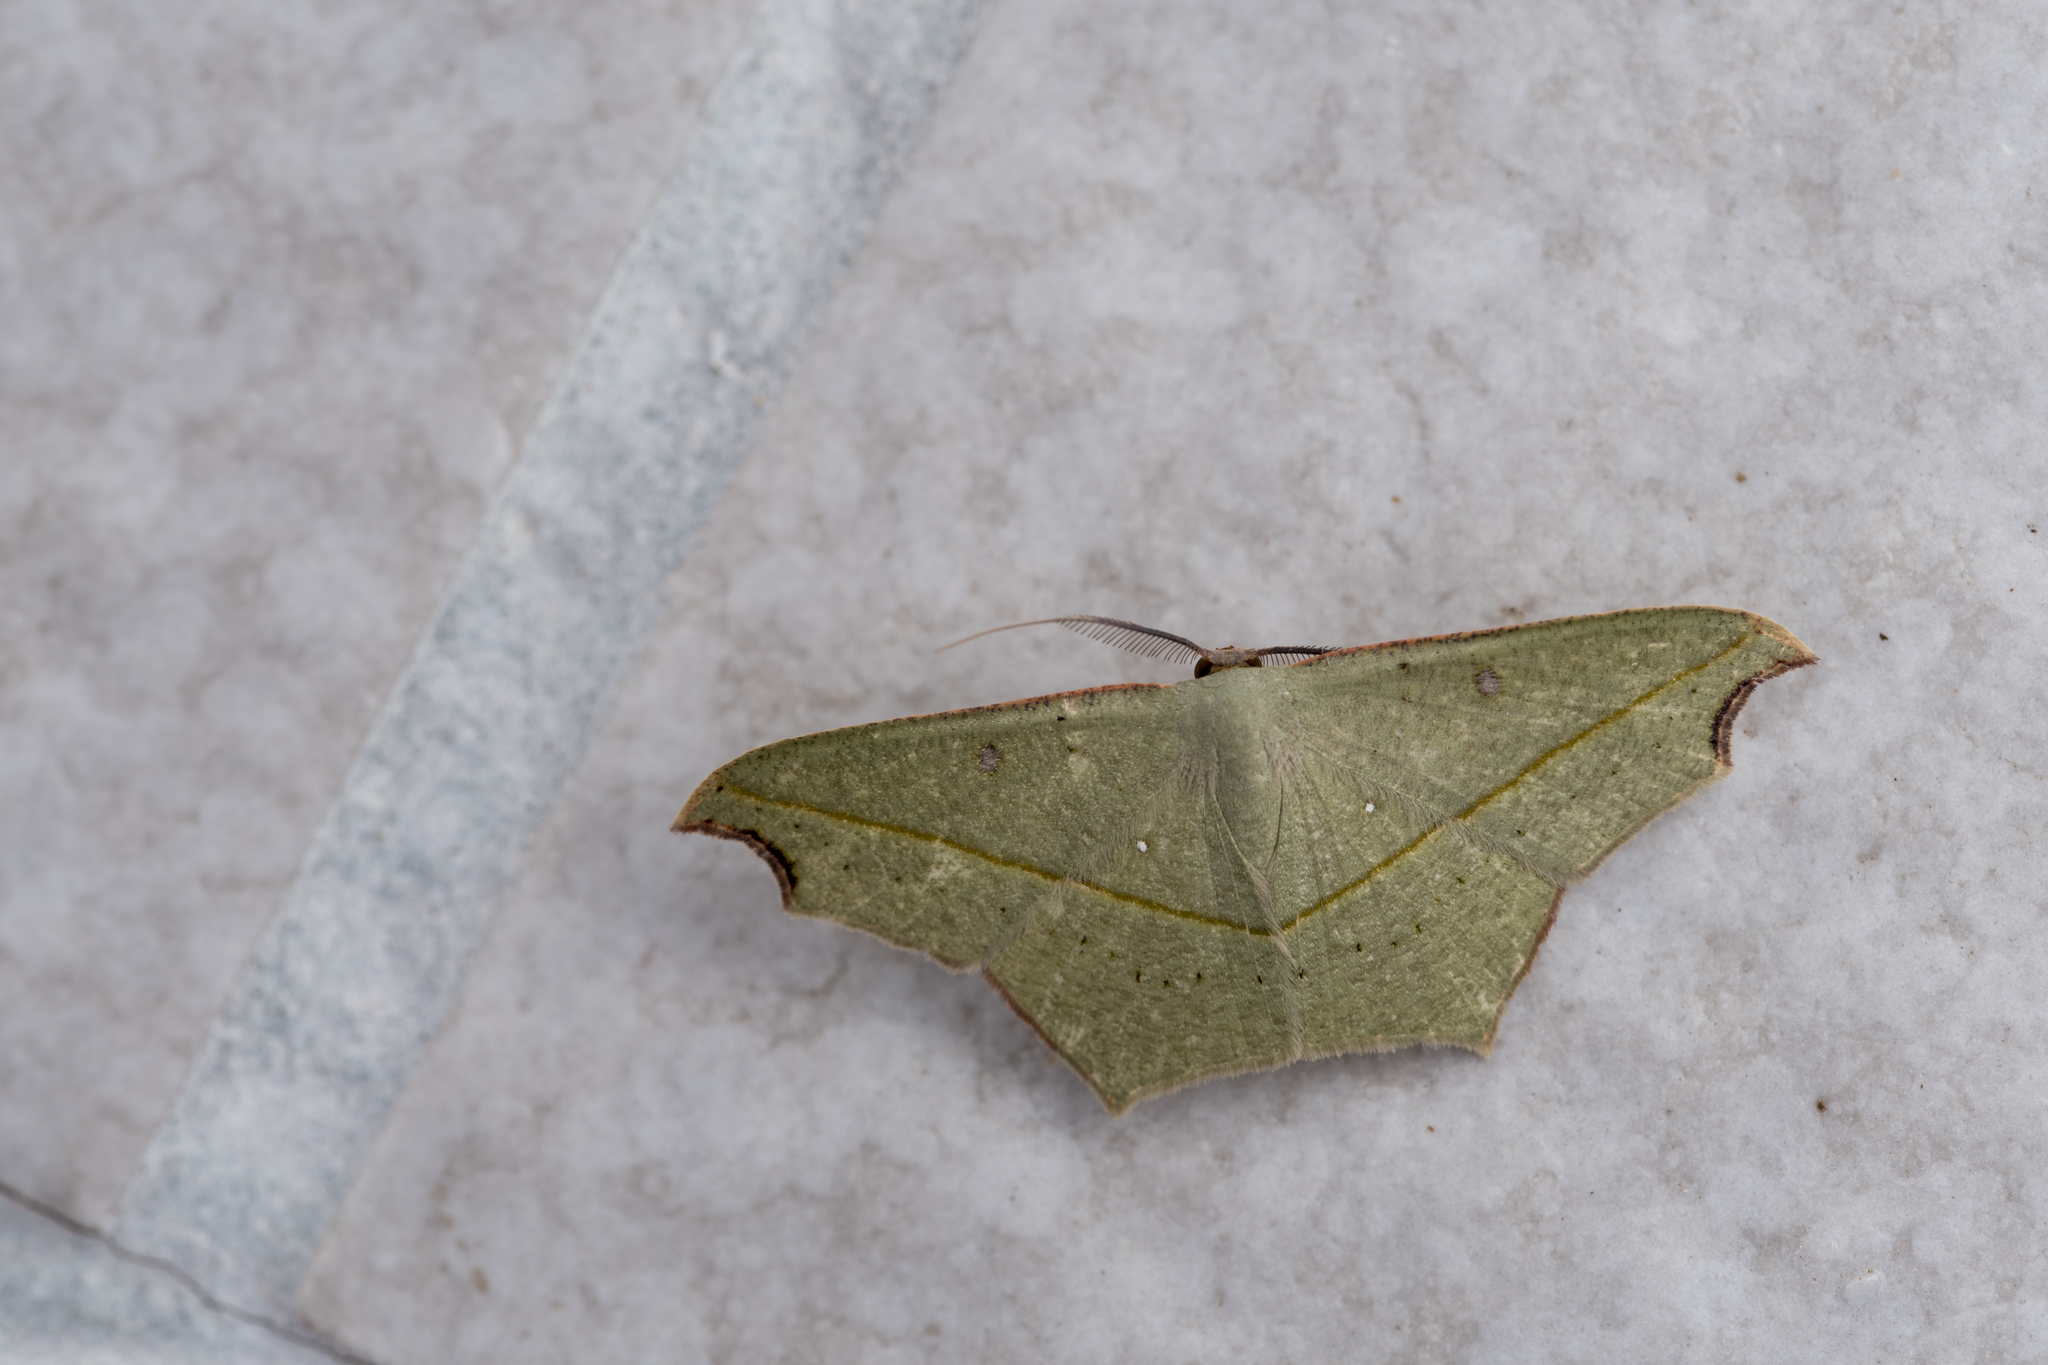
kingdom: Animalia
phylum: Arthropoda
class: Insecta
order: Lepidoptera
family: Geometridae
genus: Traminda
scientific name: Traminda aventiaria
